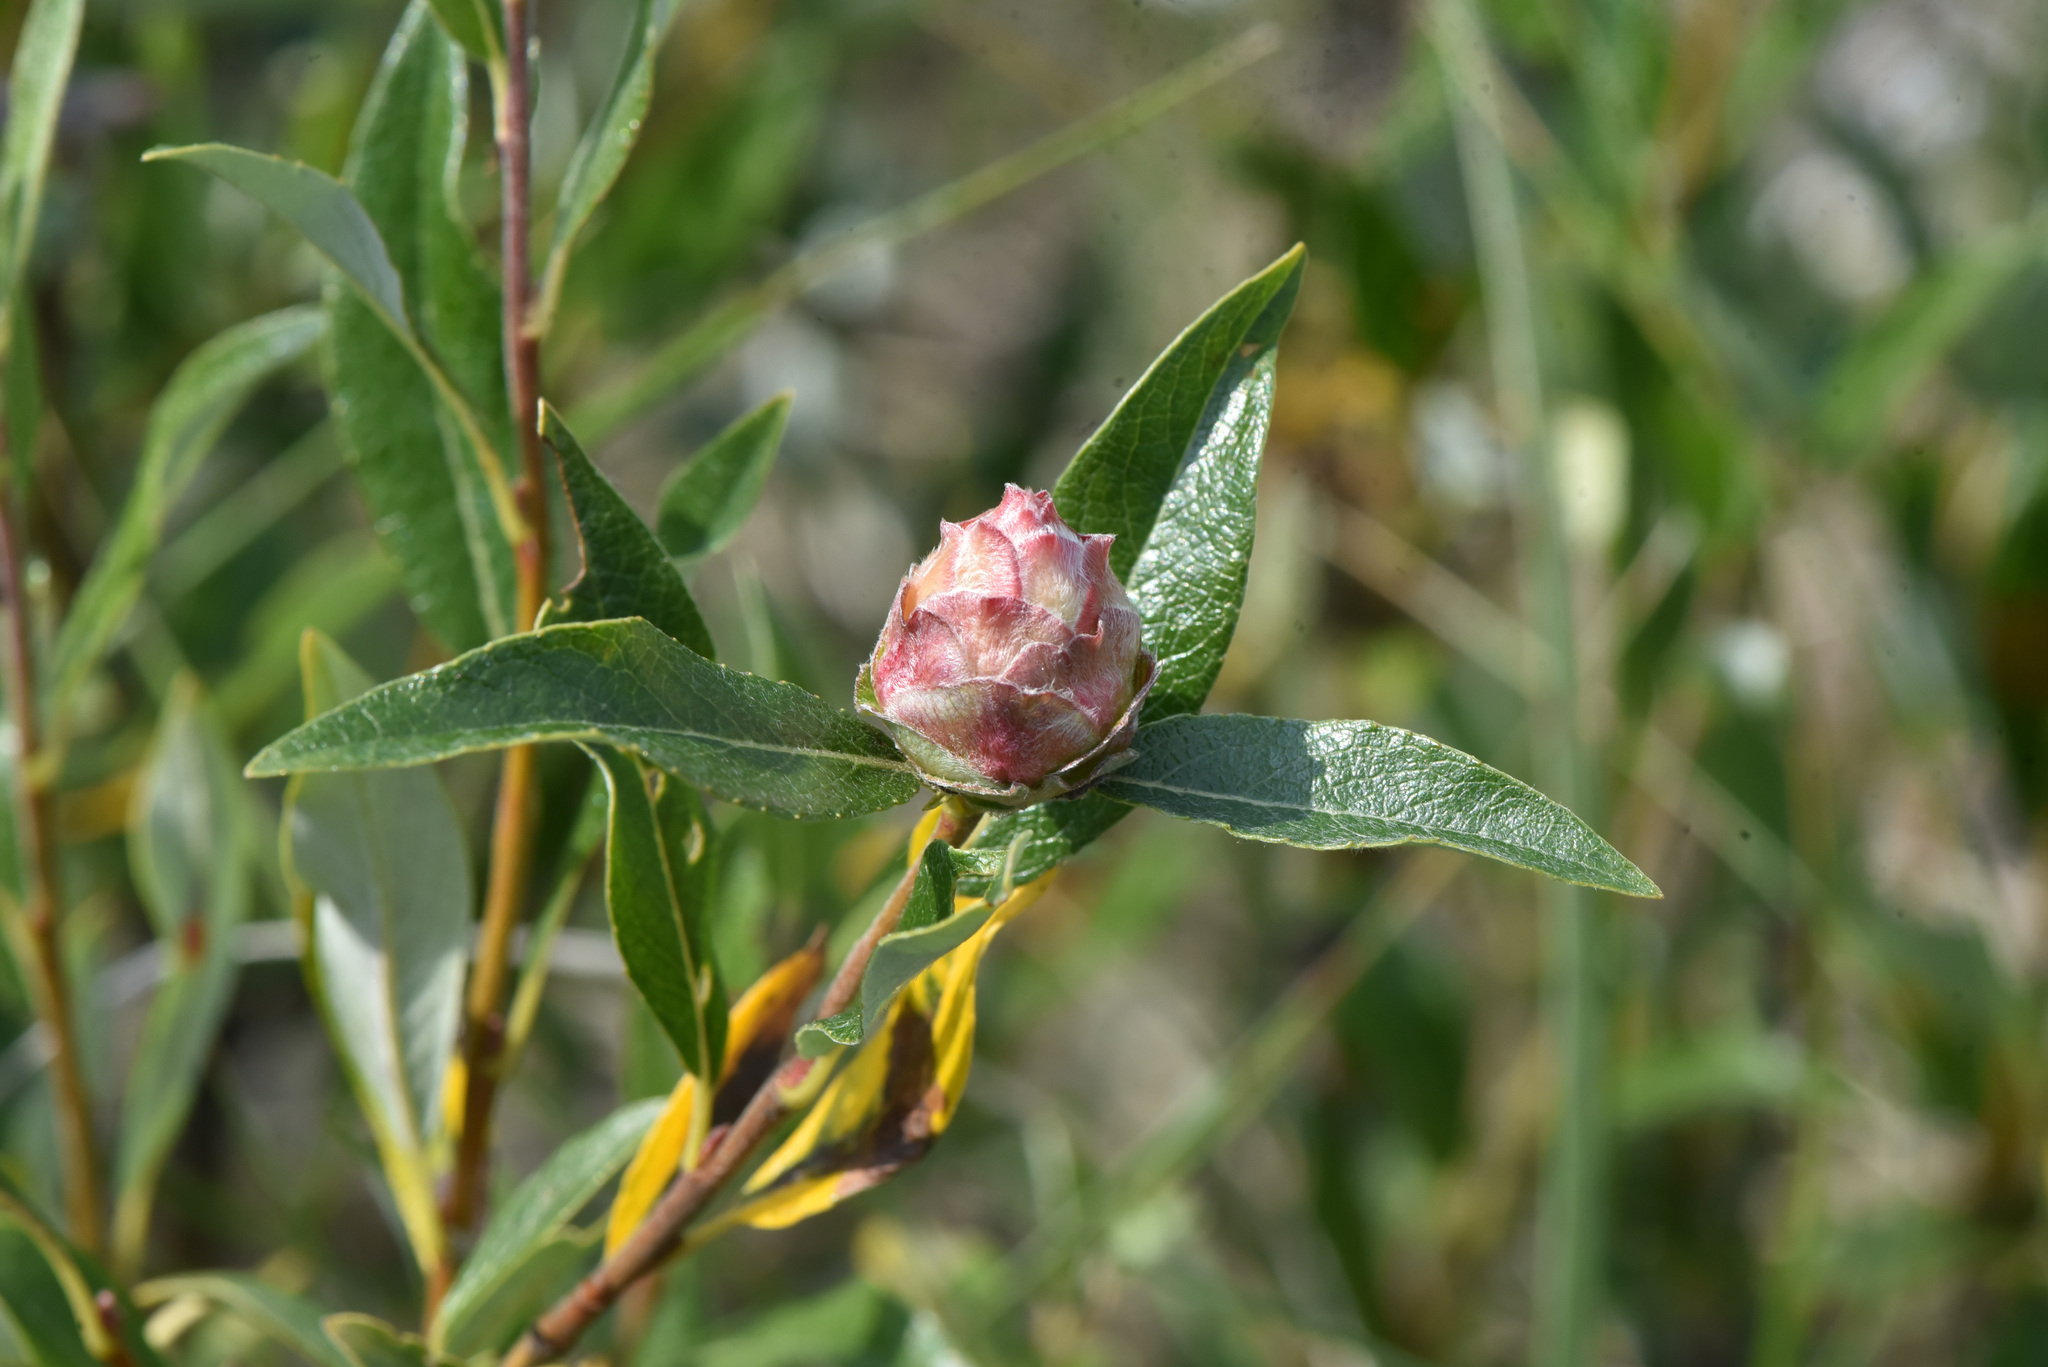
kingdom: Animalia
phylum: Arthropoda
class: Insecta
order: Diptera
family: Cecidomyiidae
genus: Rabdophaga
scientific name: Rabdophaga strobiloides
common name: Willow pinecone gall midge
